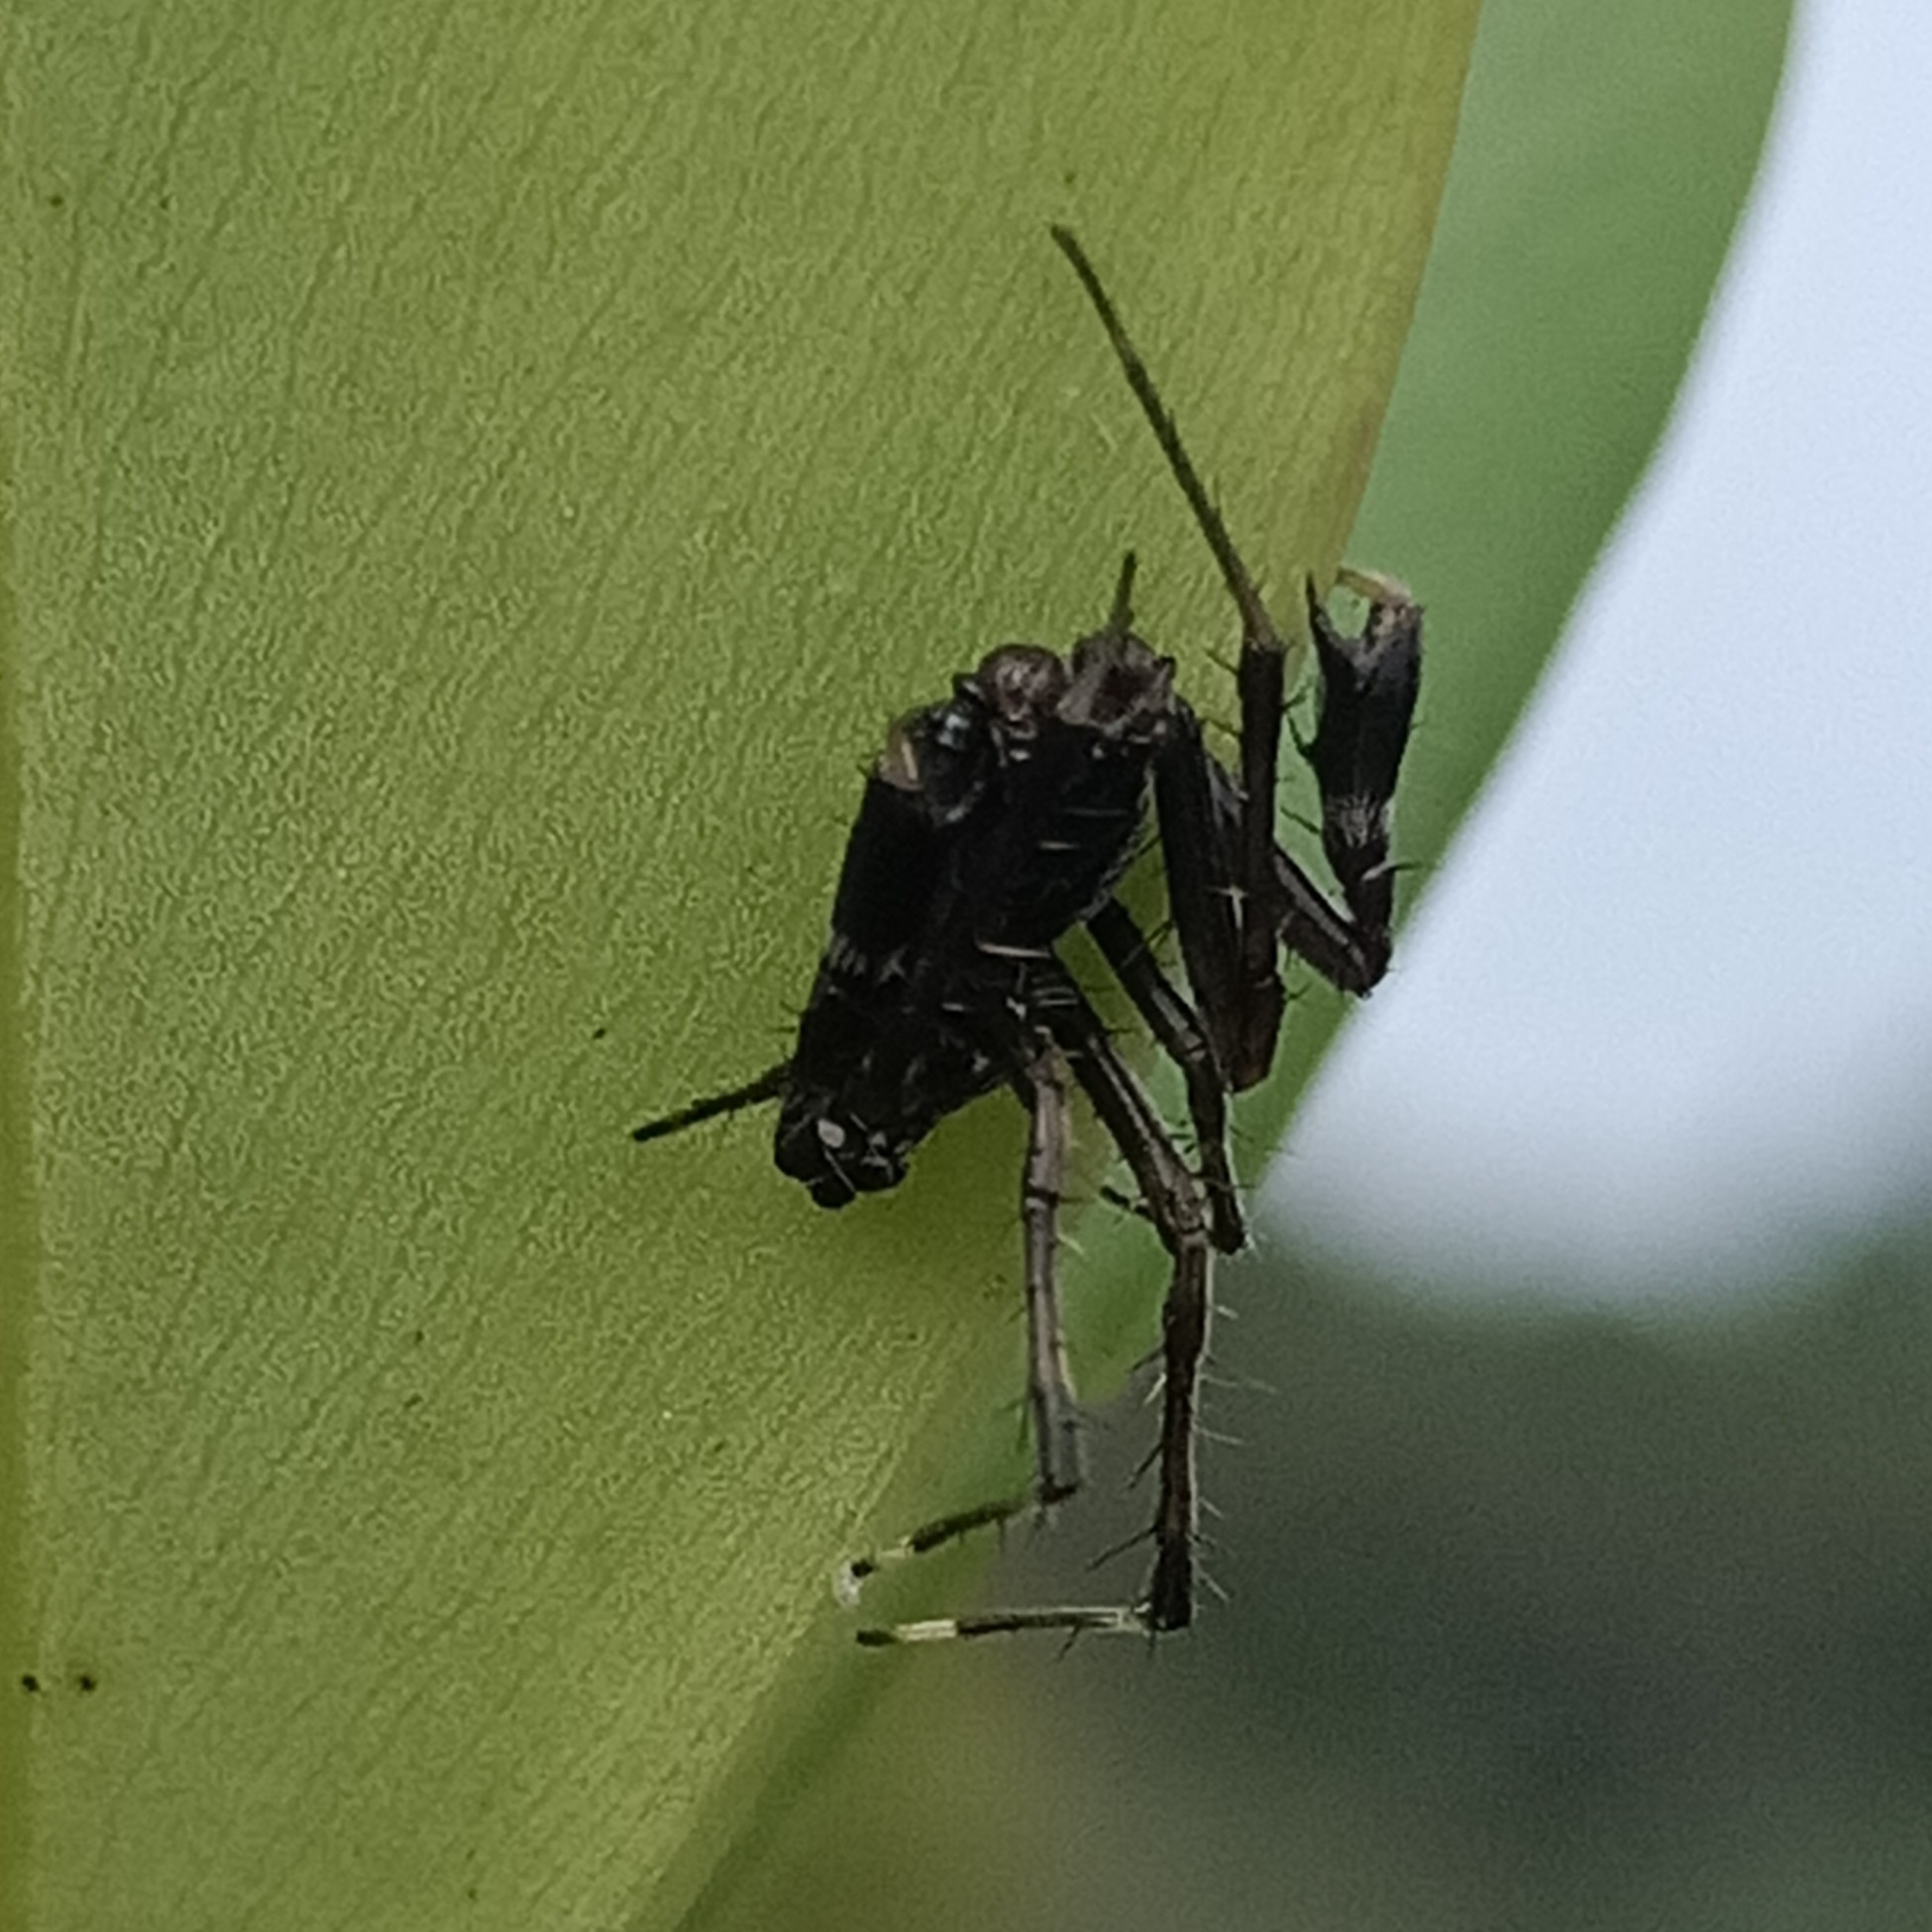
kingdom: Animalia
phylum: Arthropoda
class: Arachnida
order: Araneae
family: Araneidae
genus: Alpaida
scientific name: Alpaida truncata
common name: Orb weavers
